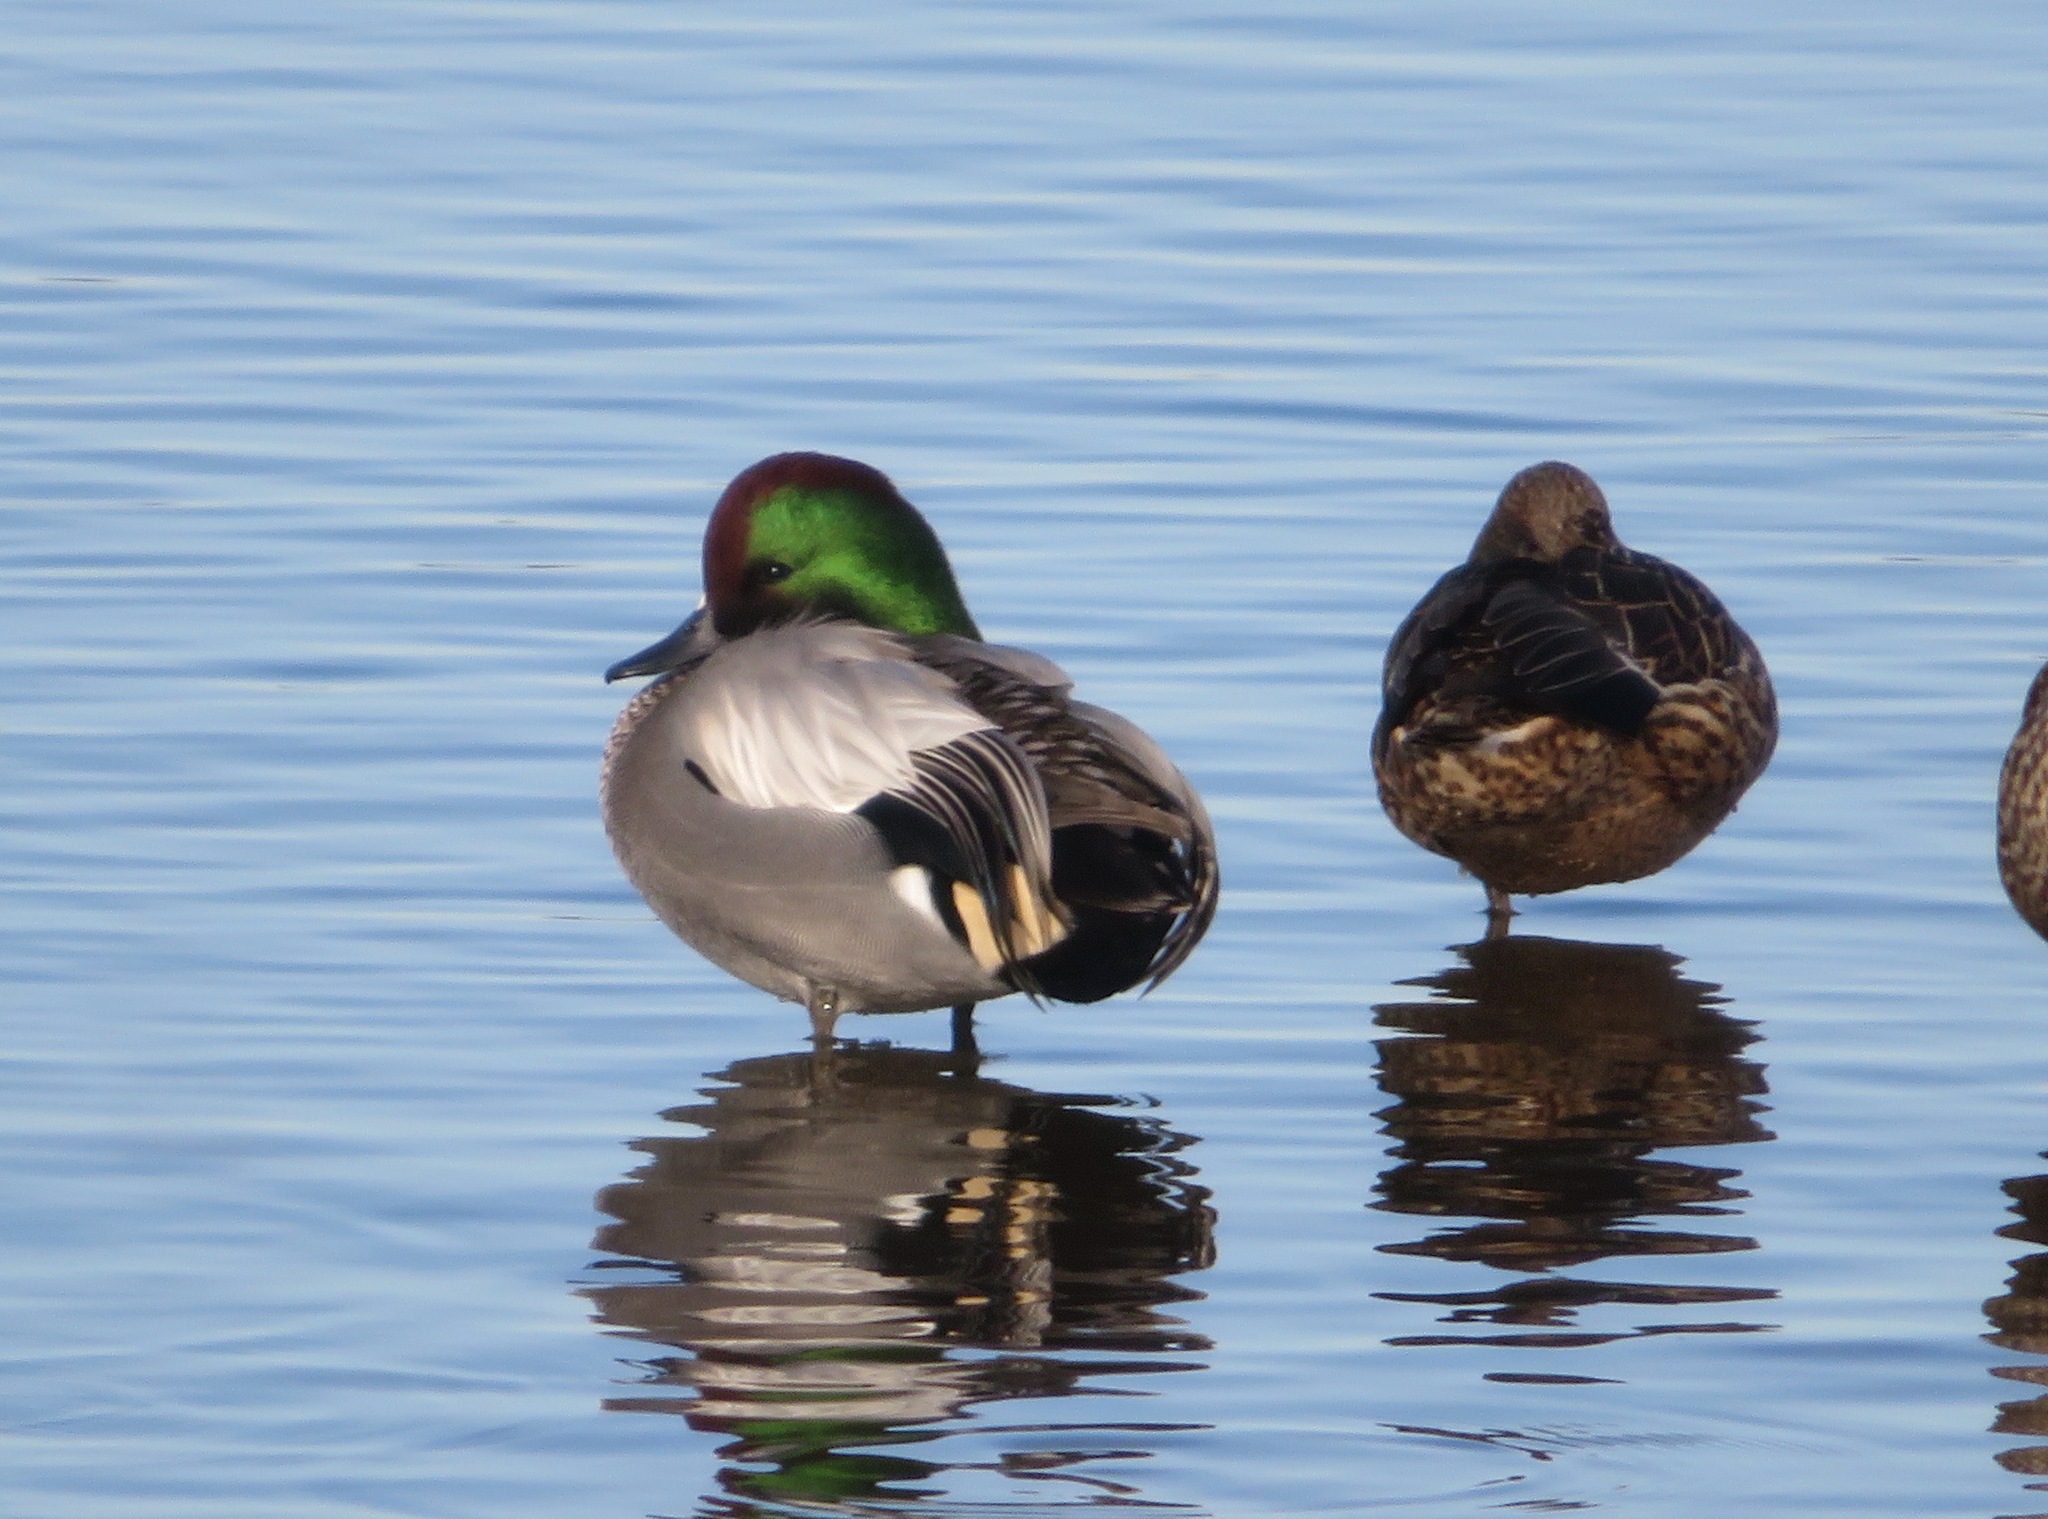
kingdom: Animalia
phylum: Chordata
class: Aves
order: Anseriformes
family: Anatidae
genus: Mareca
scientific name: Mareca falcata
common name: Falcated duck
